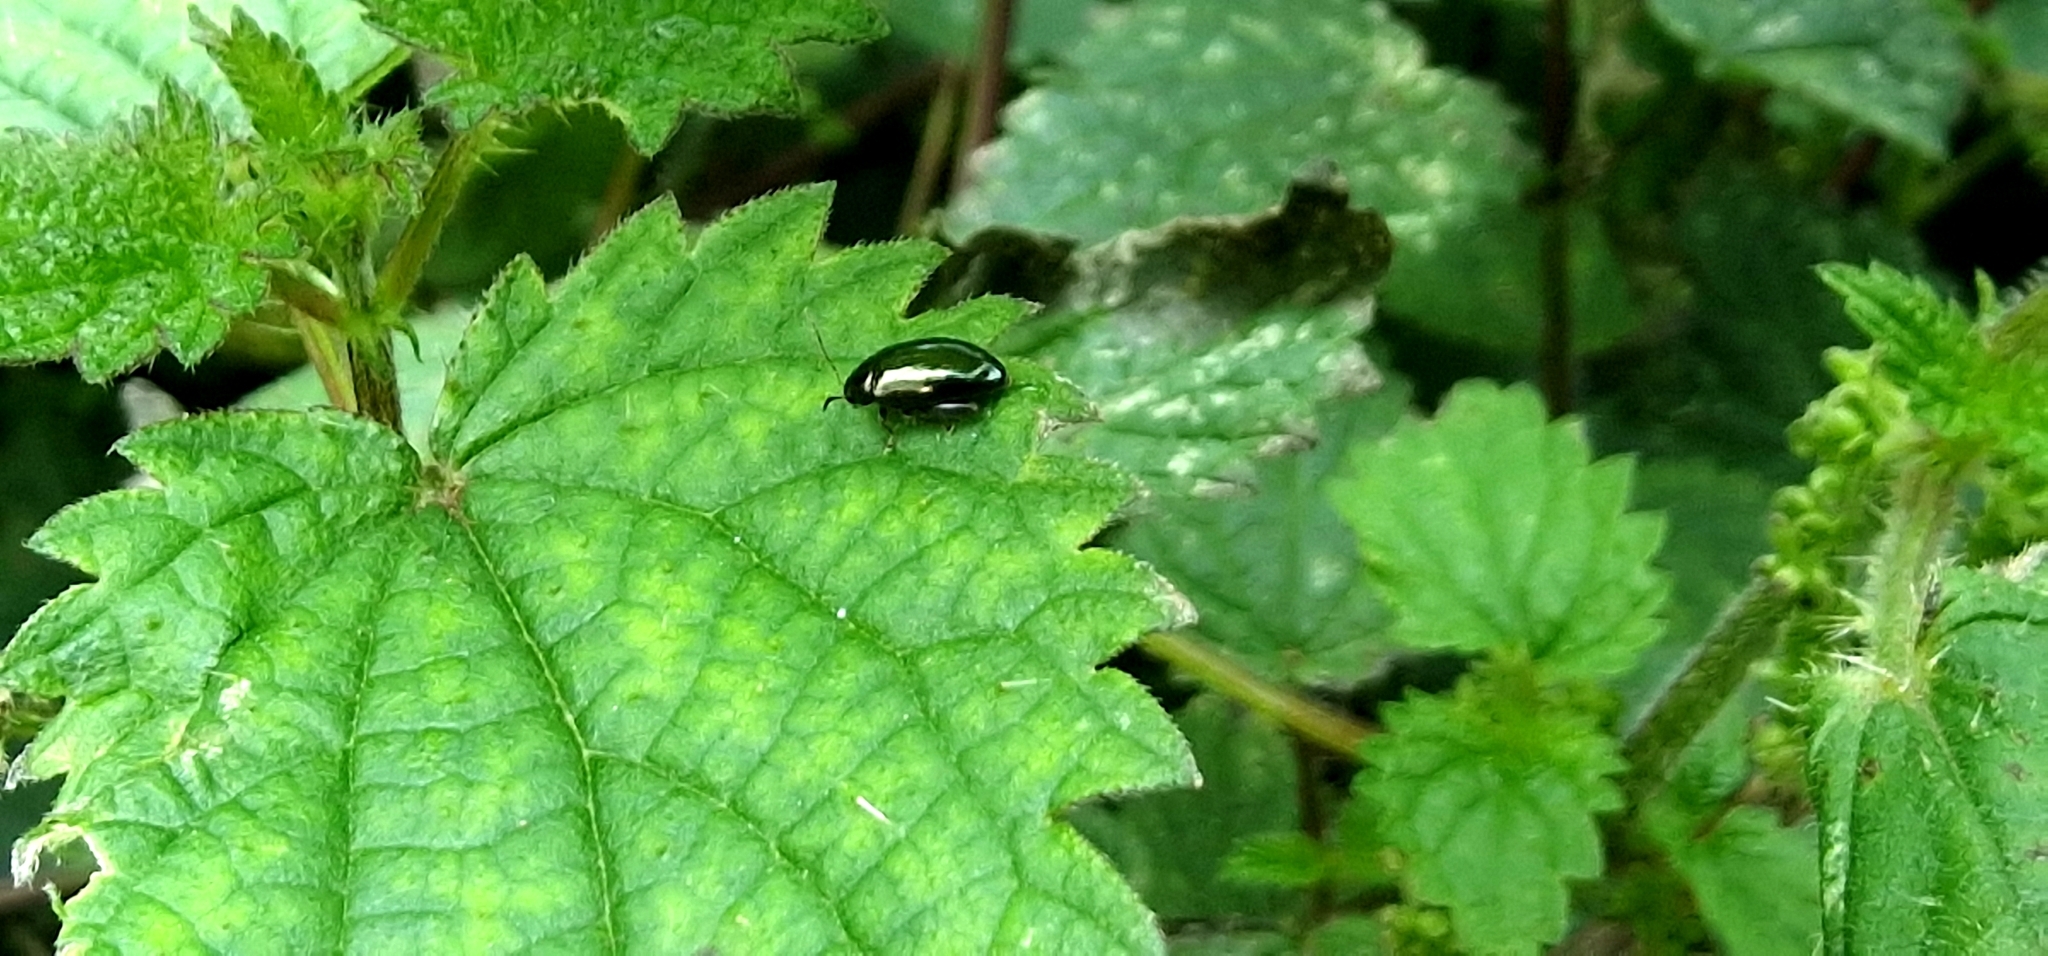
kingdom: Animalia
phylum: Arthropoda
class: Insecta
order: Coleoptera
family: Chrysomelidae
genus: Psylliodes
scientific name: Psylliodes chrysocephalus
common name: Cabbage-stem flea beetle
